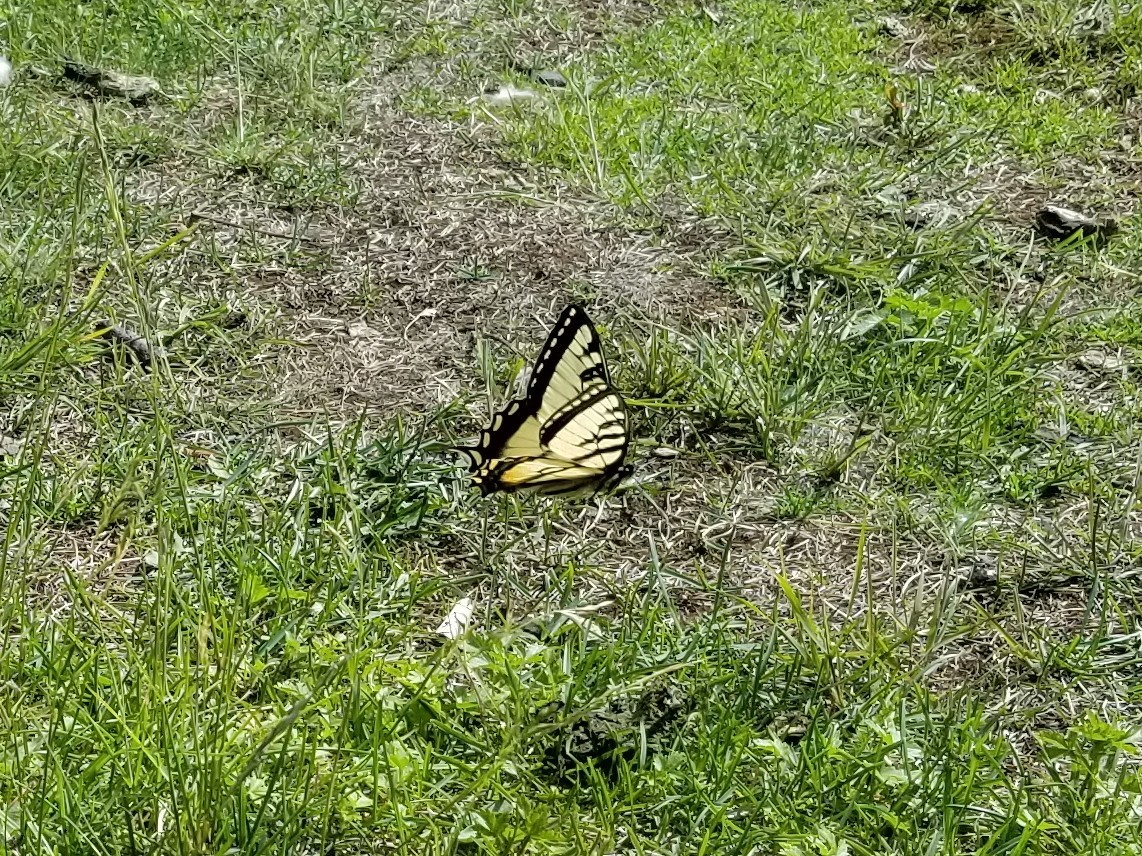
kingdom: Animalia
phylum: Arthropoda
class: Insecta
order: Lepidoptera
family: Papilionidae
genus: Papilio
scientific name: Papilio canadensis
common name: Canadian tiger swallowtail
